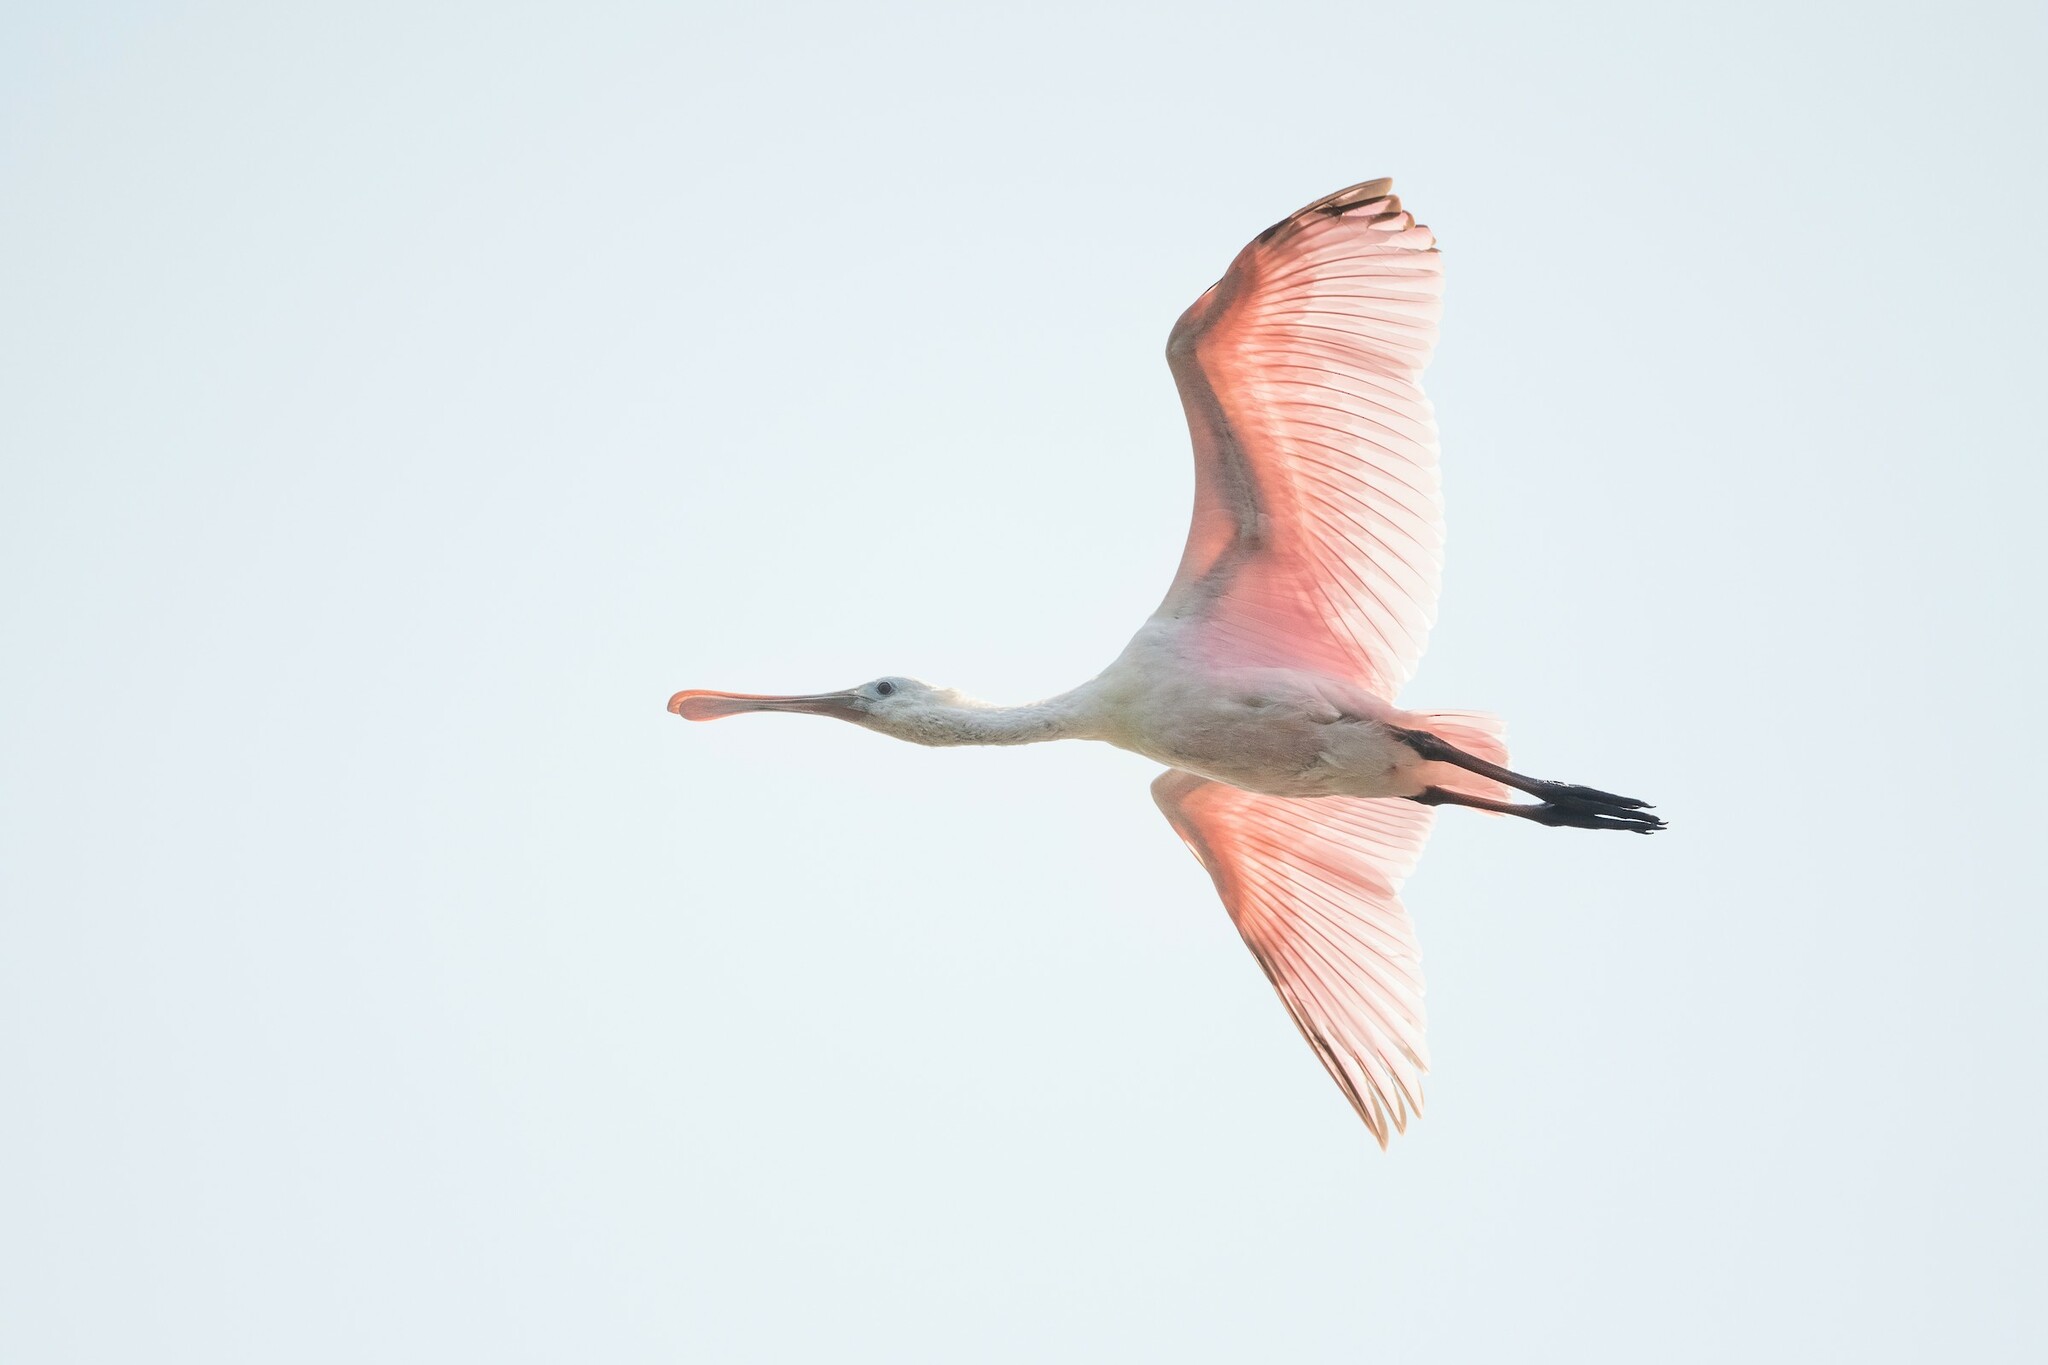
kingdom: Animalia
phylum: Chordata
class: Aves
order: Pelecaniformes
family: Threskiornithidae
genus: Platalea
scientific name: Platalea ajaja
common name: Roseate spoonbill
